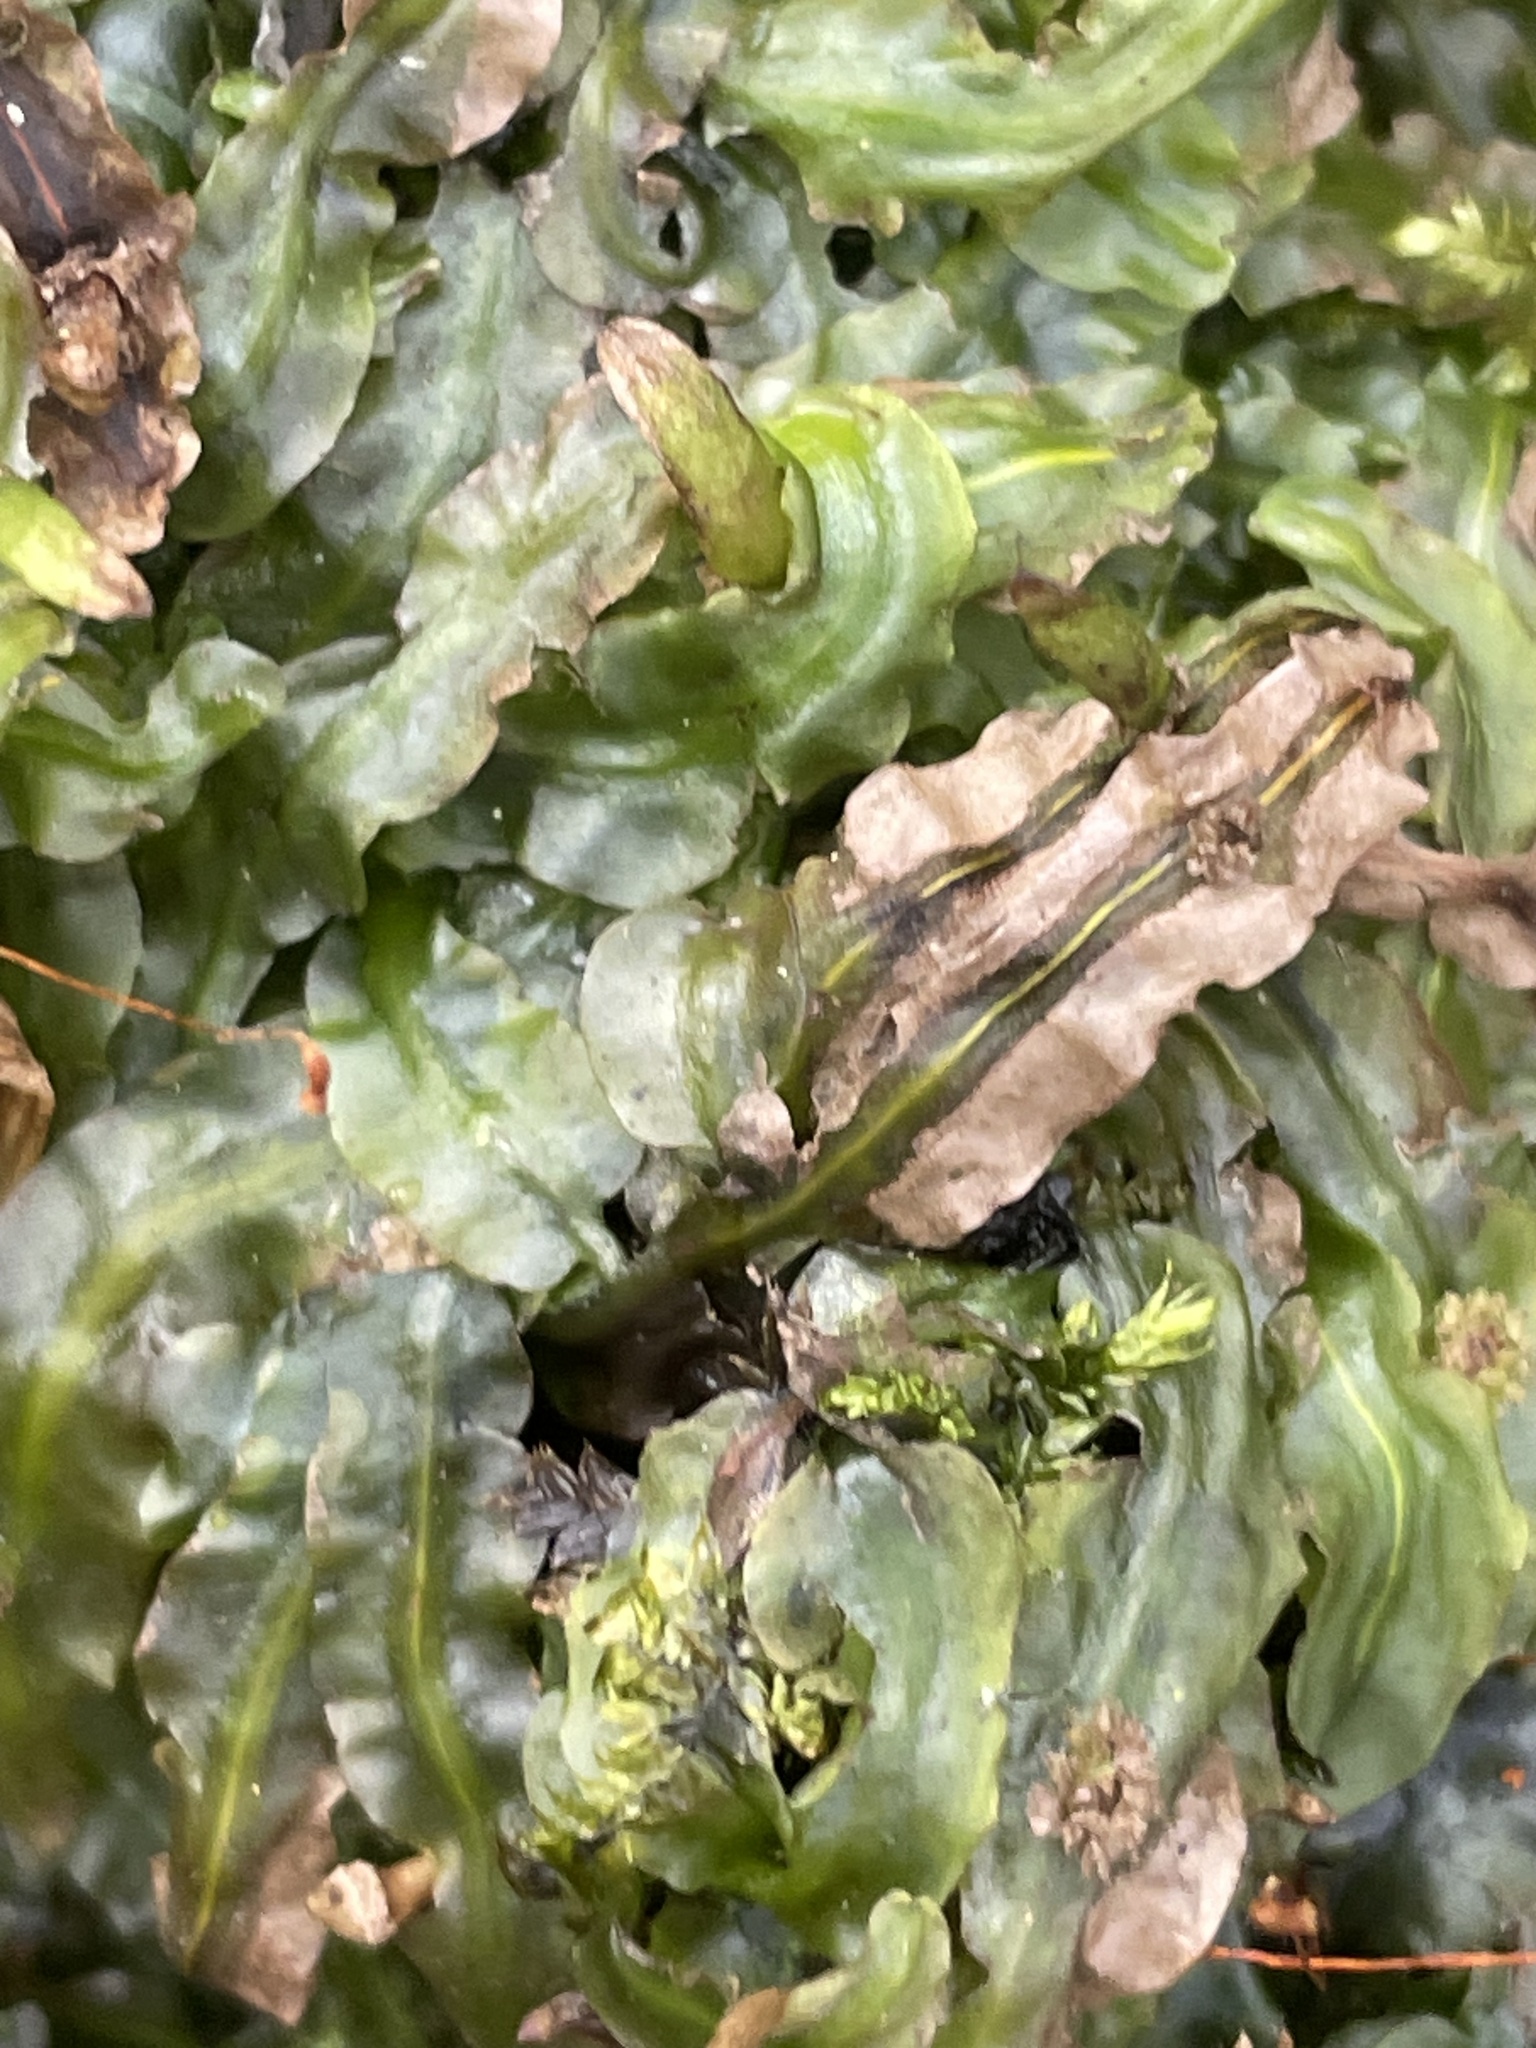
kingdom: Plantae
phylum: Marchantiophyta
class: Jungermanniopsida
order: Pallaviciniales
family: Pallaviciniaceae
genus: Pallavicinia
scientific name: Pallavicinia lyellii
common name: Veilwort
